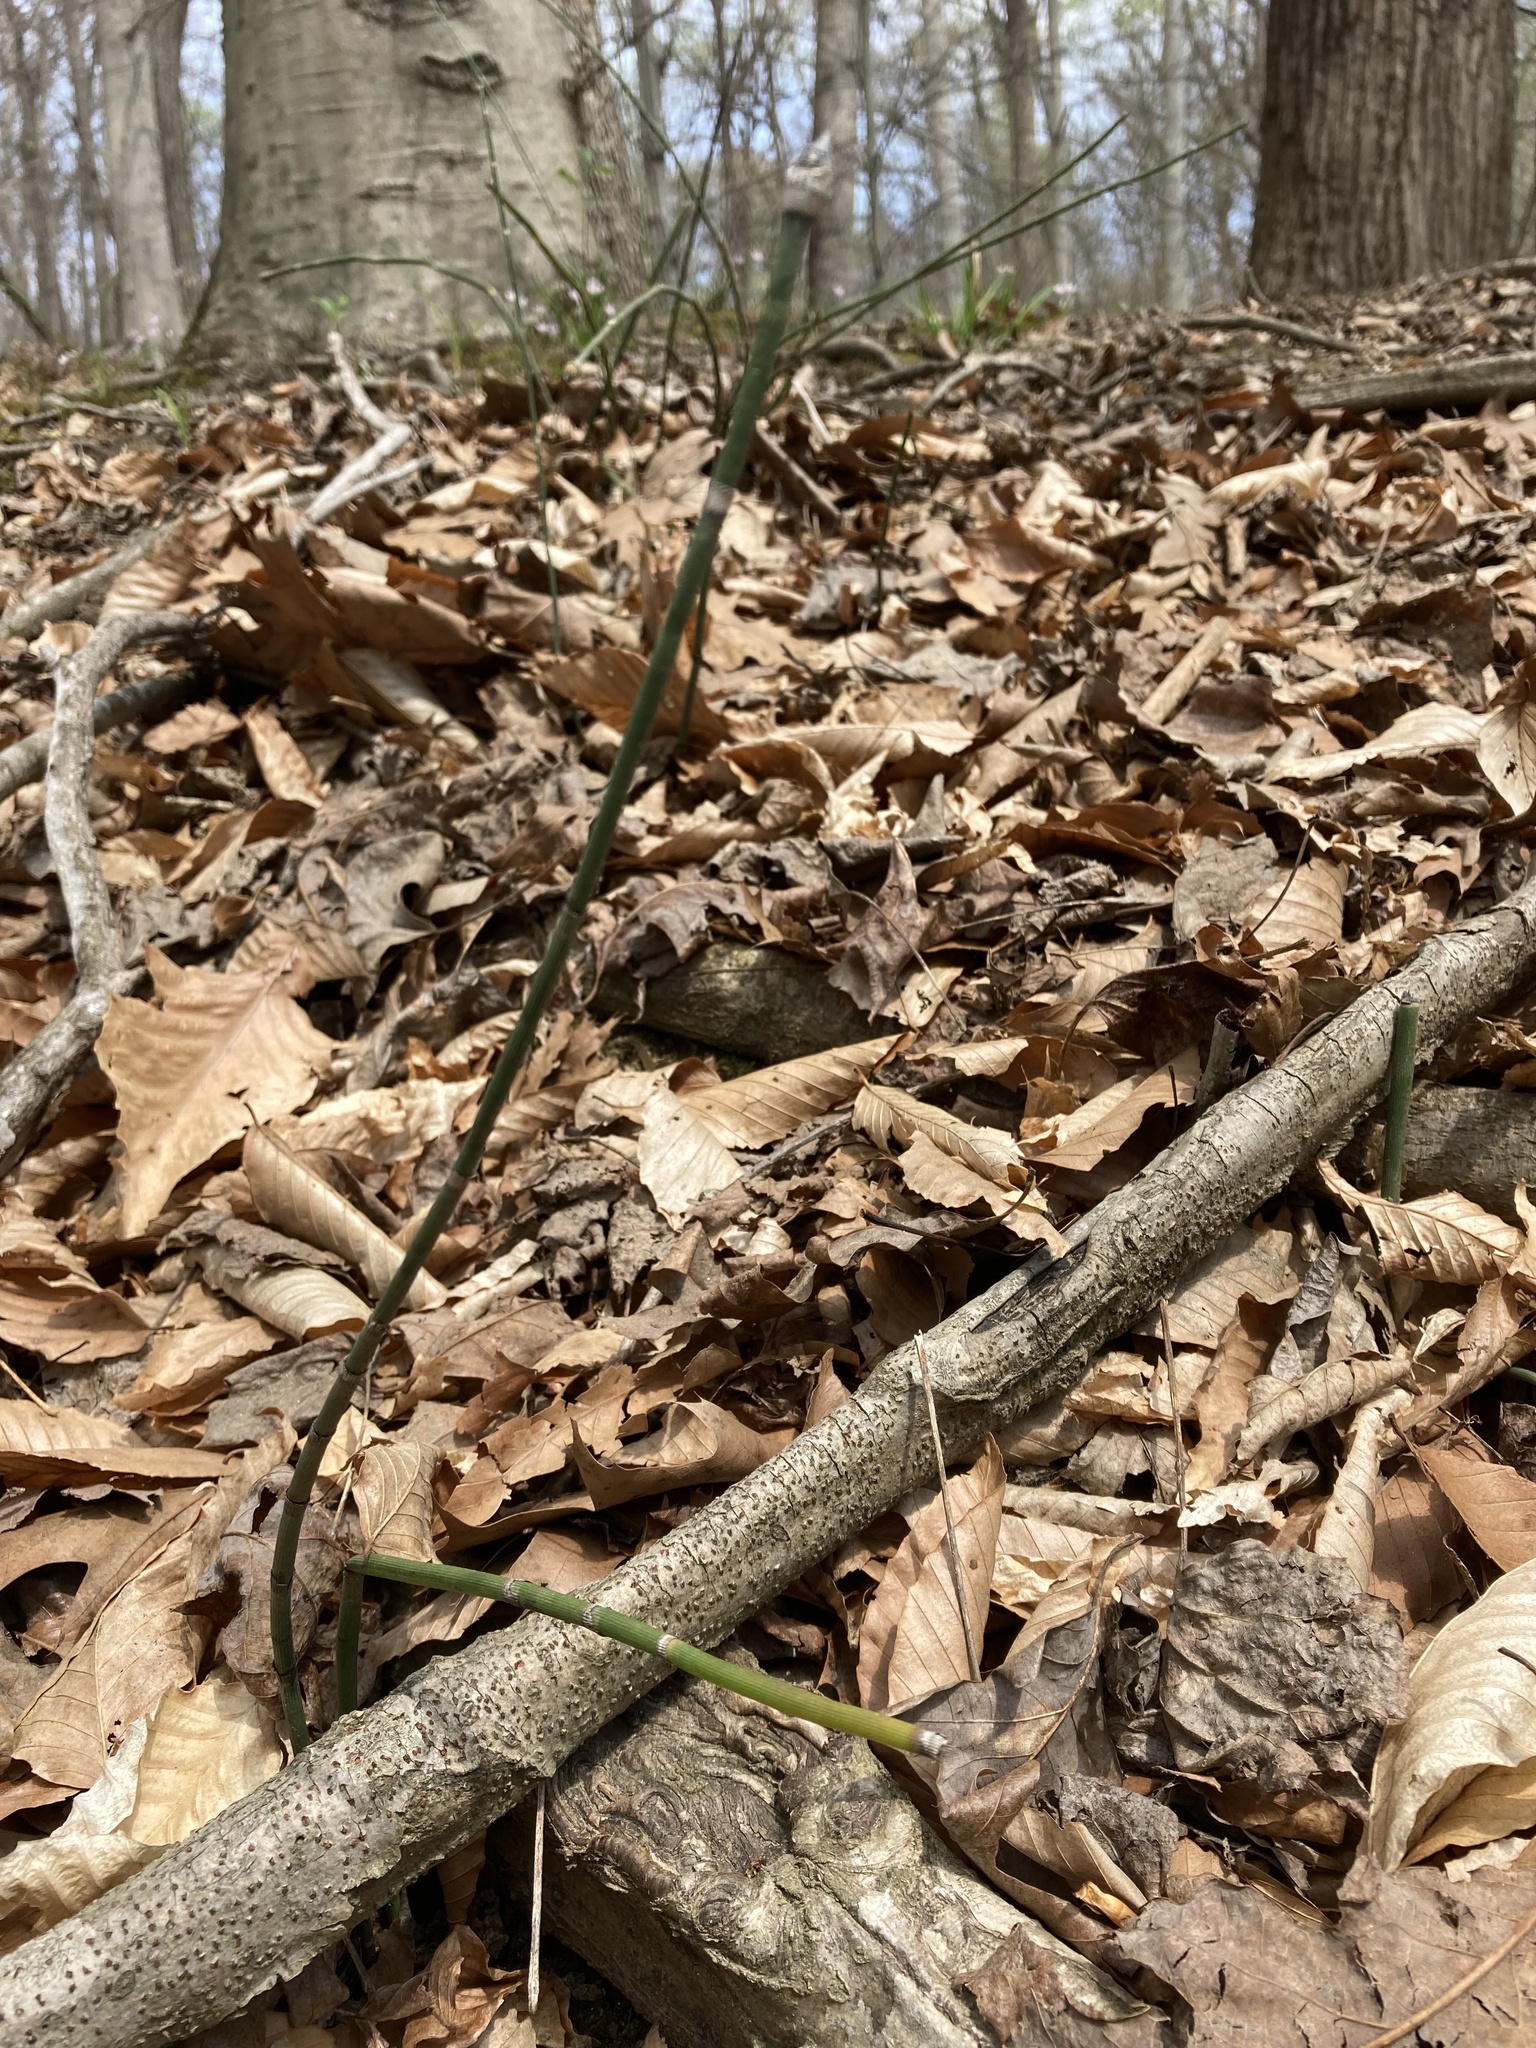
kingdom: Plantae
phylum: Tracheophyta
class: Polypodiopsida
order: Equisetales
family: Equisetaceae
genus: Equisetum
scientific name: Equisetum hyemale
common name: Rough horsetail
